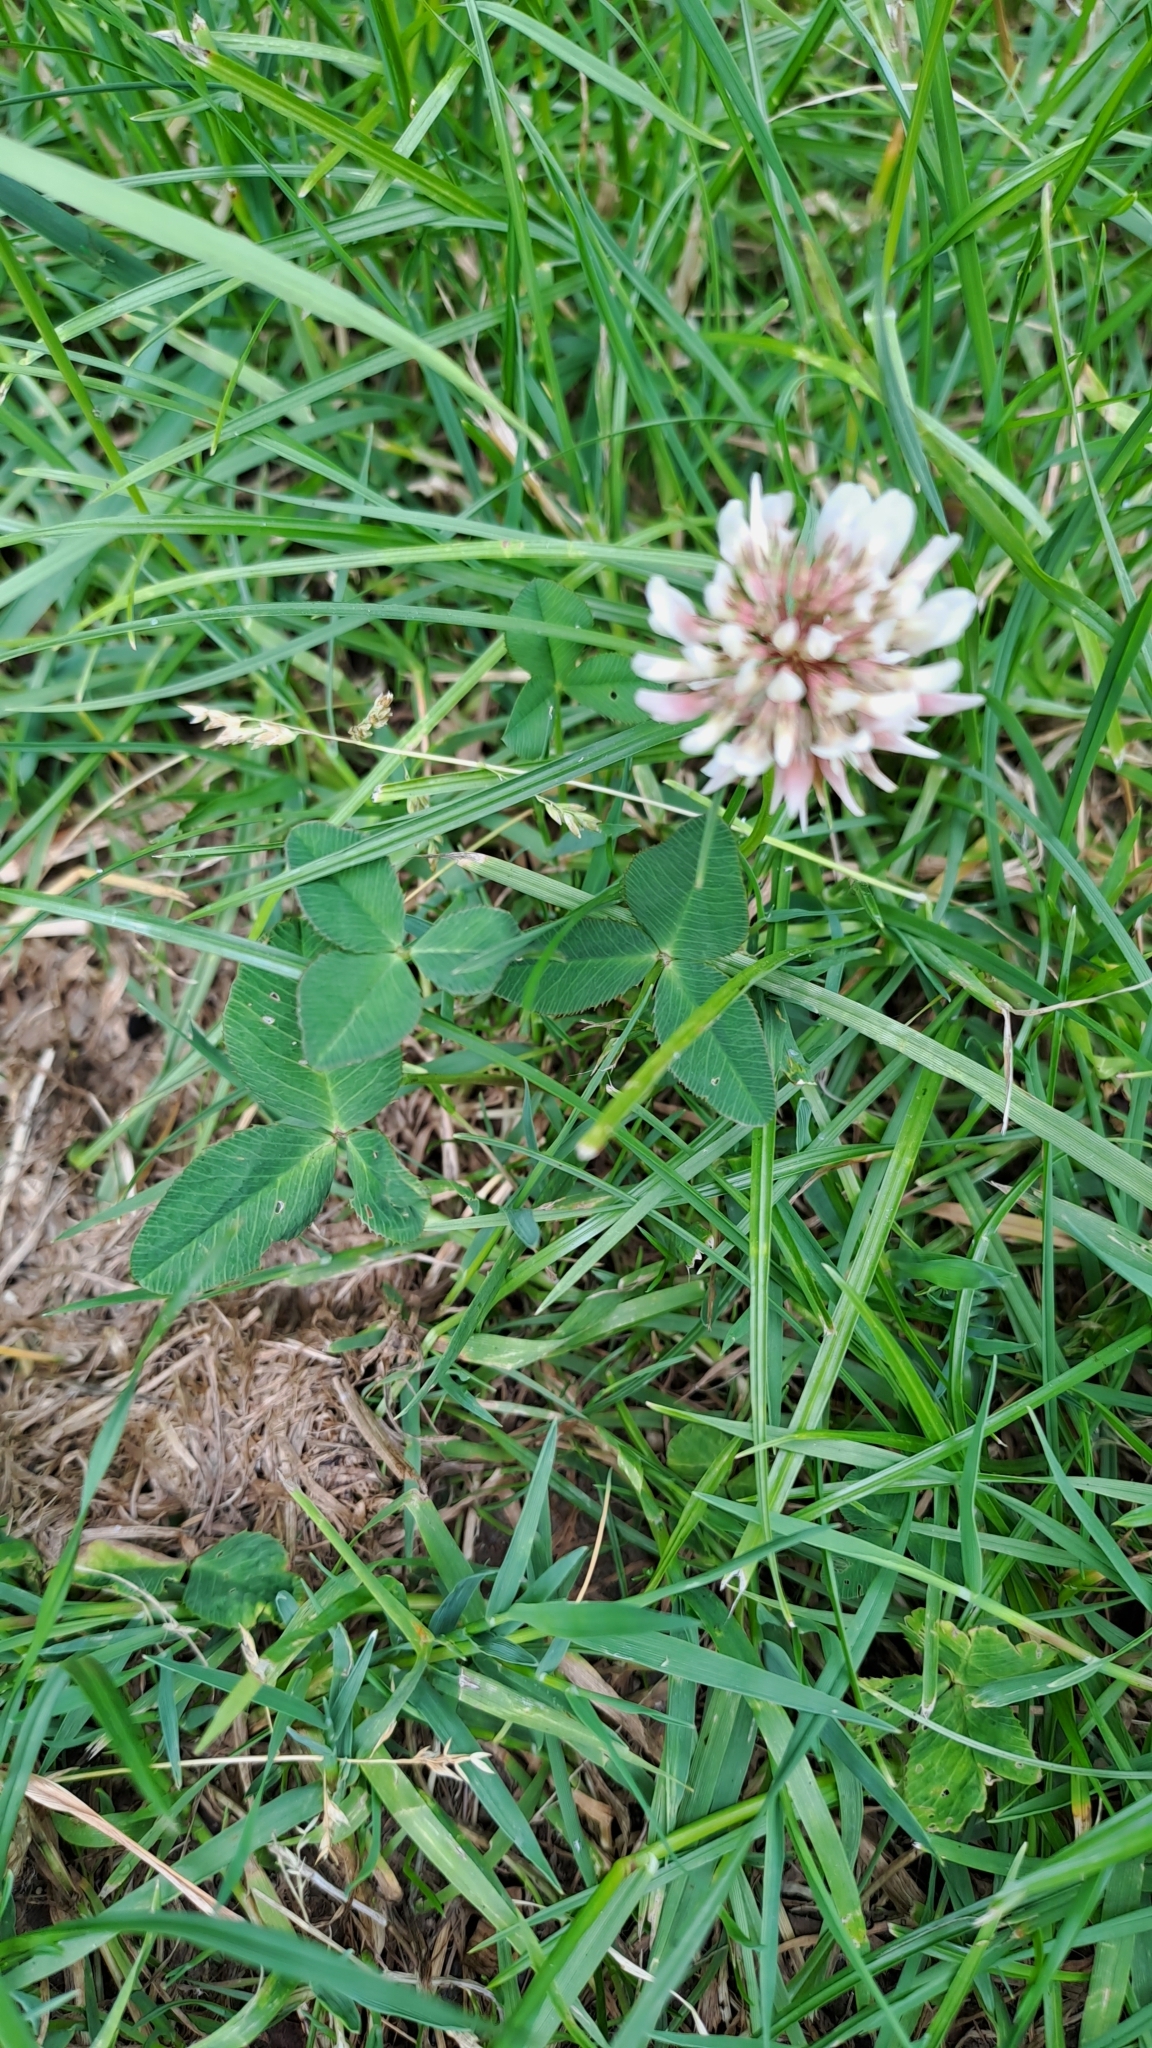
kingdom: Plantae
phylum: Tracheophyta
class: Magnoliopsida
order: Fabales
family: Fabaceae
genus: Trifolium
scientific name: Trifolium repens
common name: White clover
